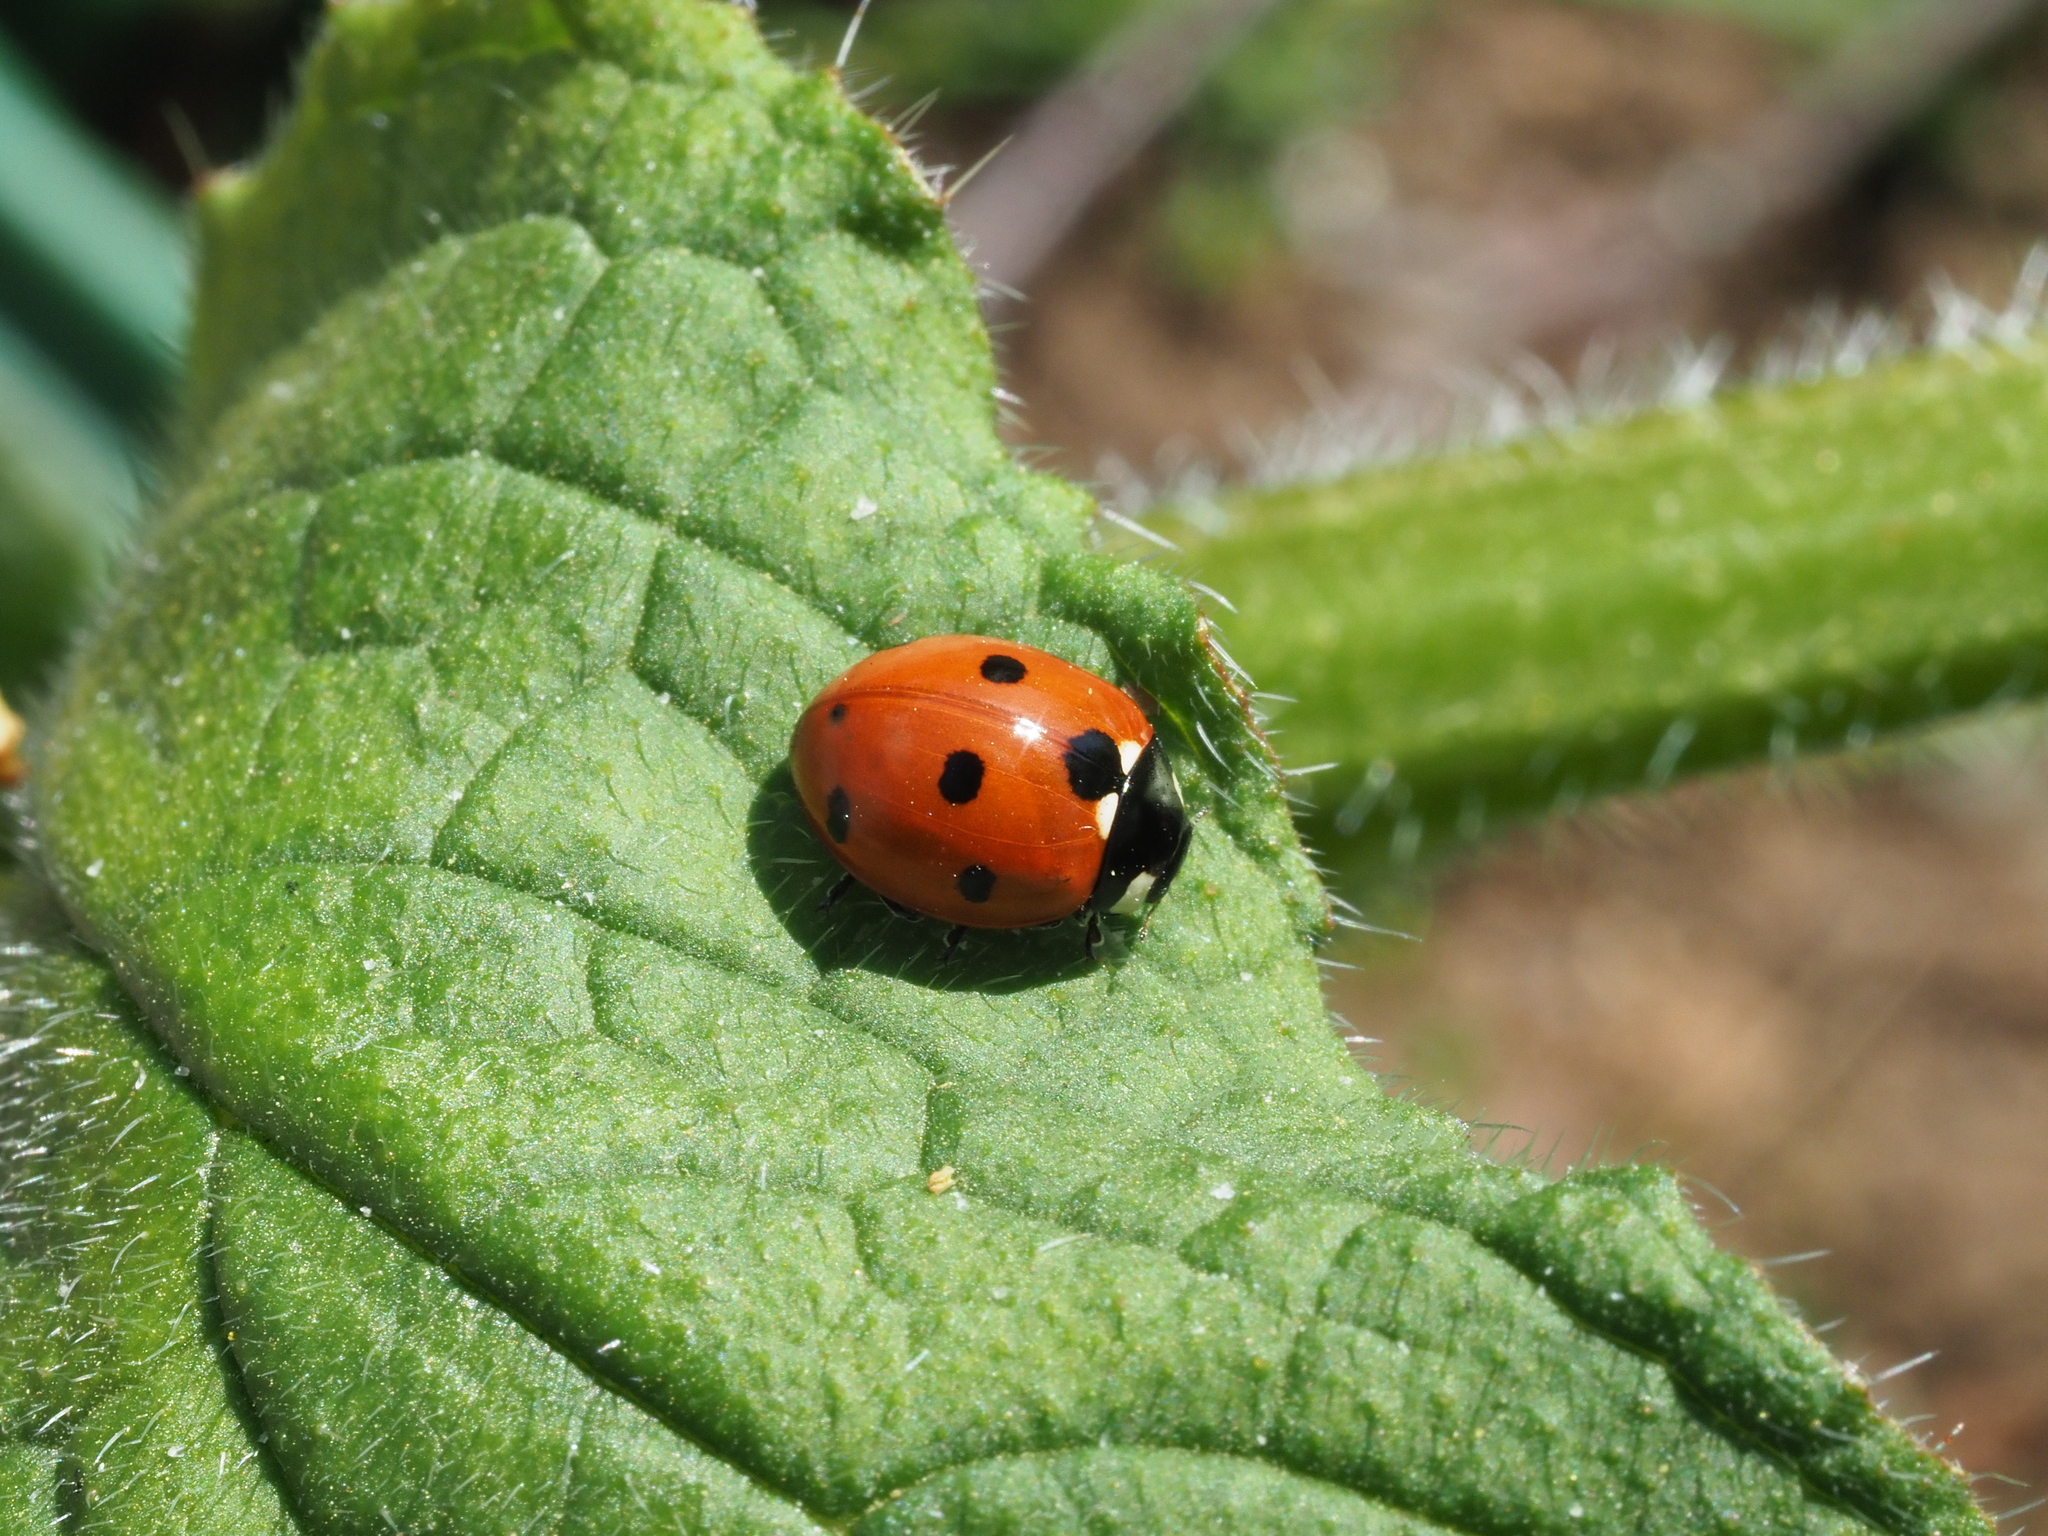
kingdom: Animalia
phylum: Arthropoda
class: Insecta
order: Coleoptera
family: Coccinellidae
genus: Coccinella
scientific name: Coccinella septempunctata
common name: Sevenspotted lady beetle
